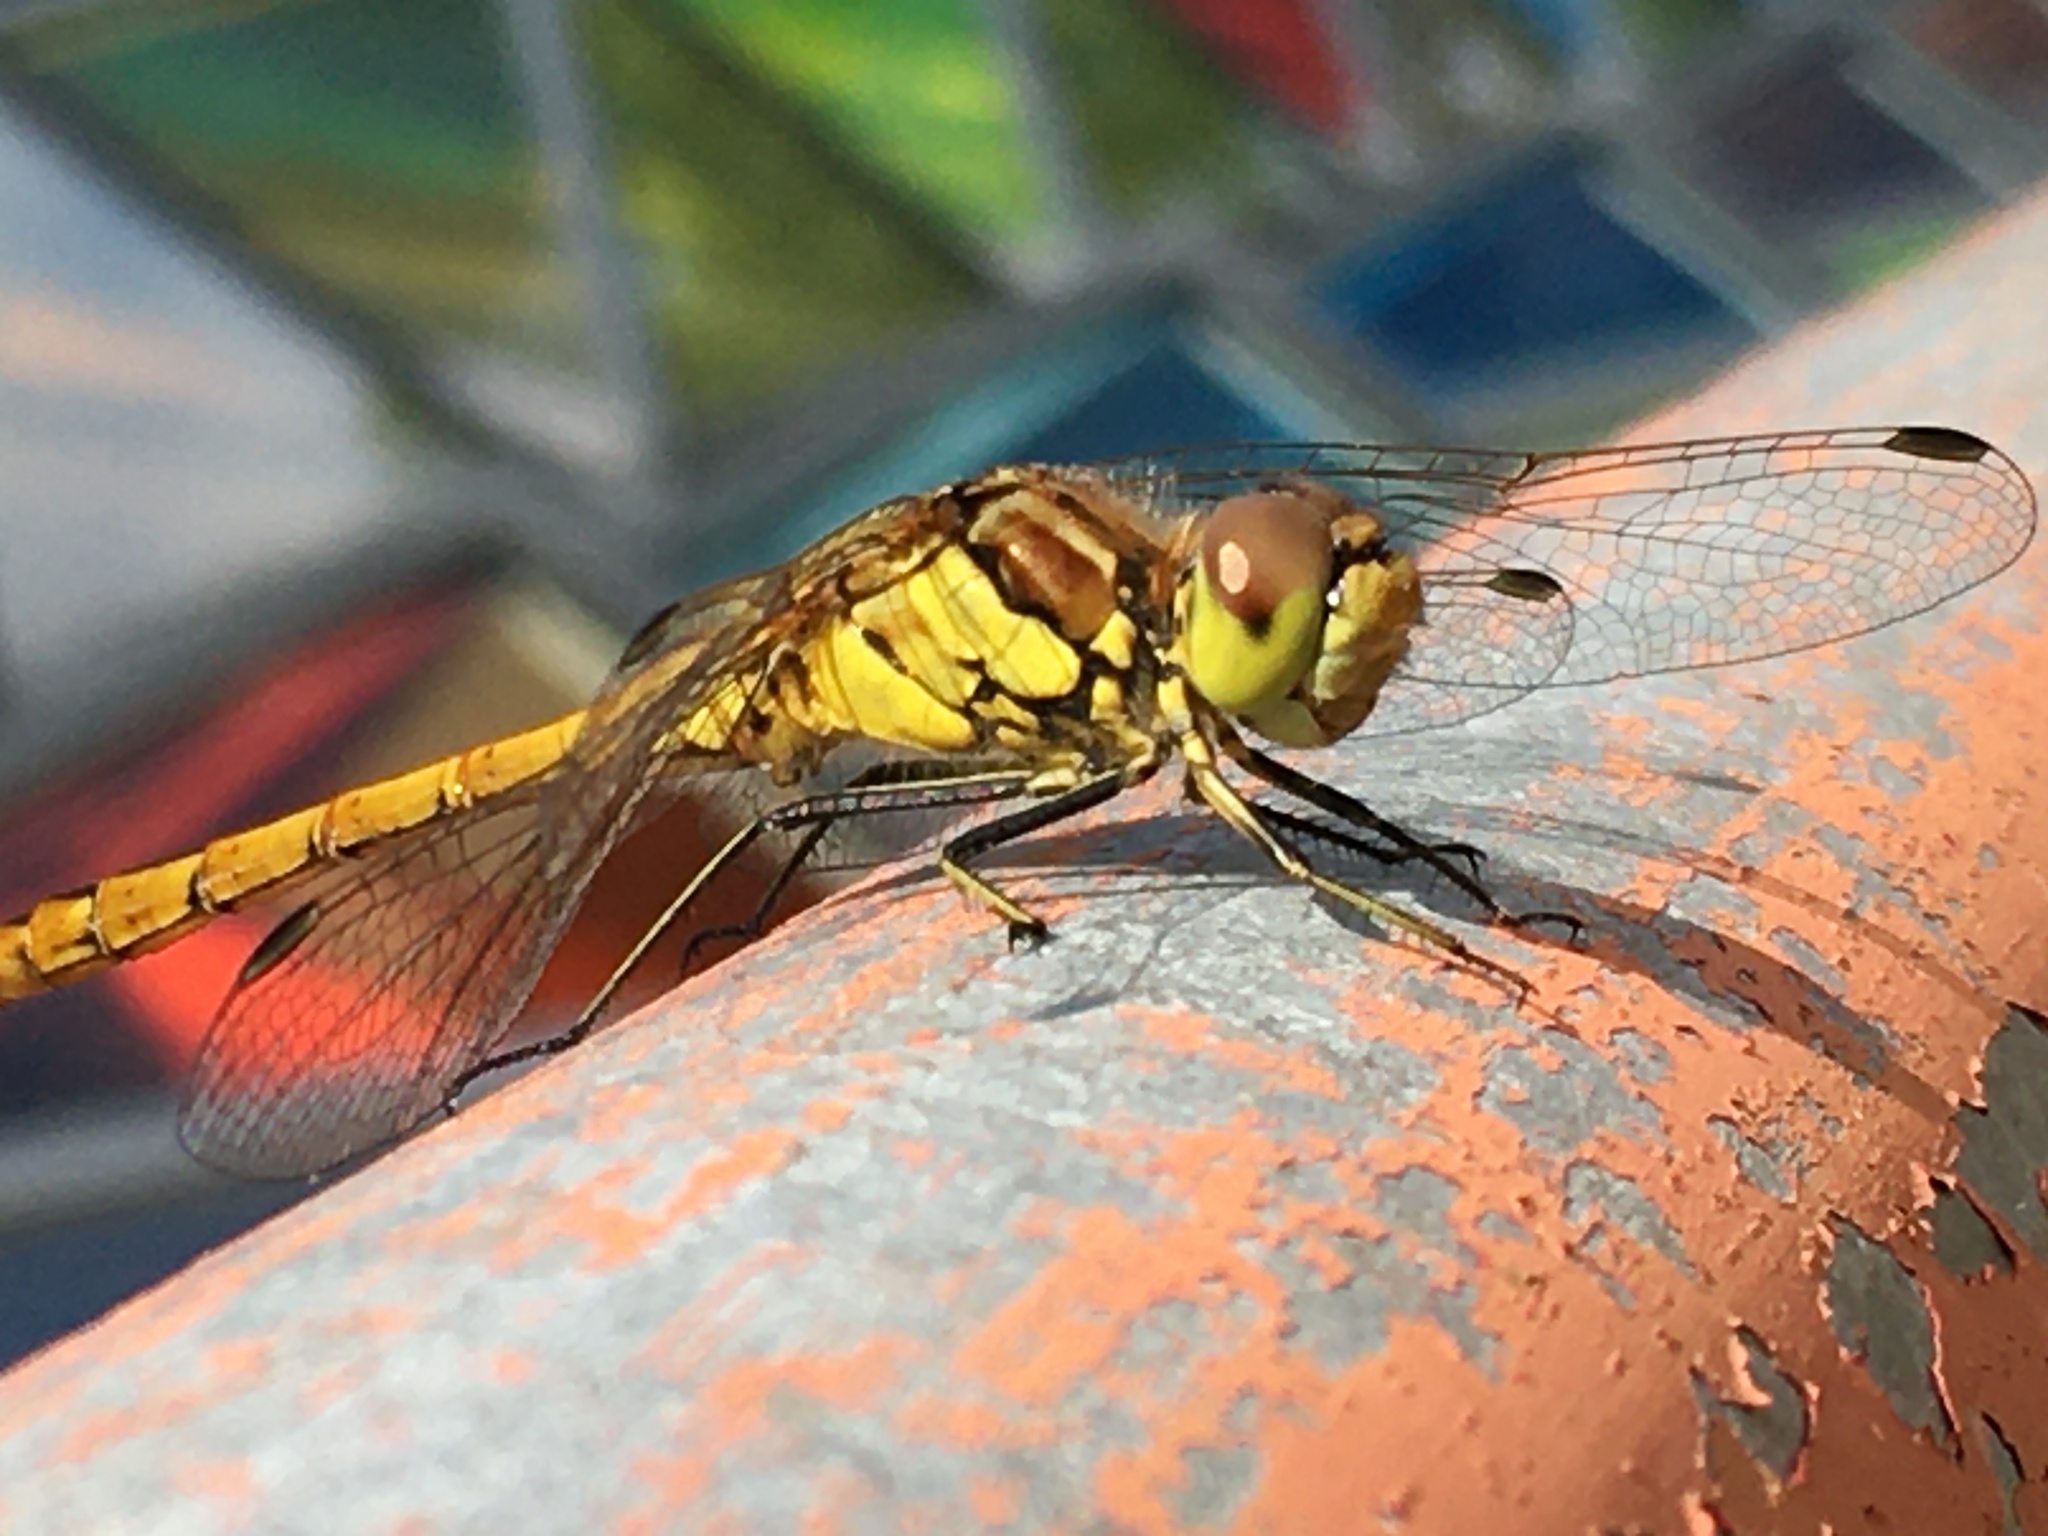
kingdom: Animalia
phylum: Arthropoda
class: Insecta
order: Odonata
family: Libellulidae
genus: Sympetrum
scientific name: Sympetrum vulgatum
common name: Vagrant darter
